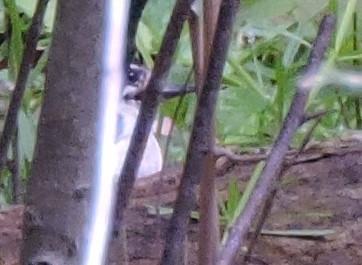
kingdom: Animalia
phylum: Chordata
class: Aves
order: Piciformes
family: Picidae
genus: Leuconotopicus
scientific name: Leuconotopicus villosus
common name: Hairy woodpecker
